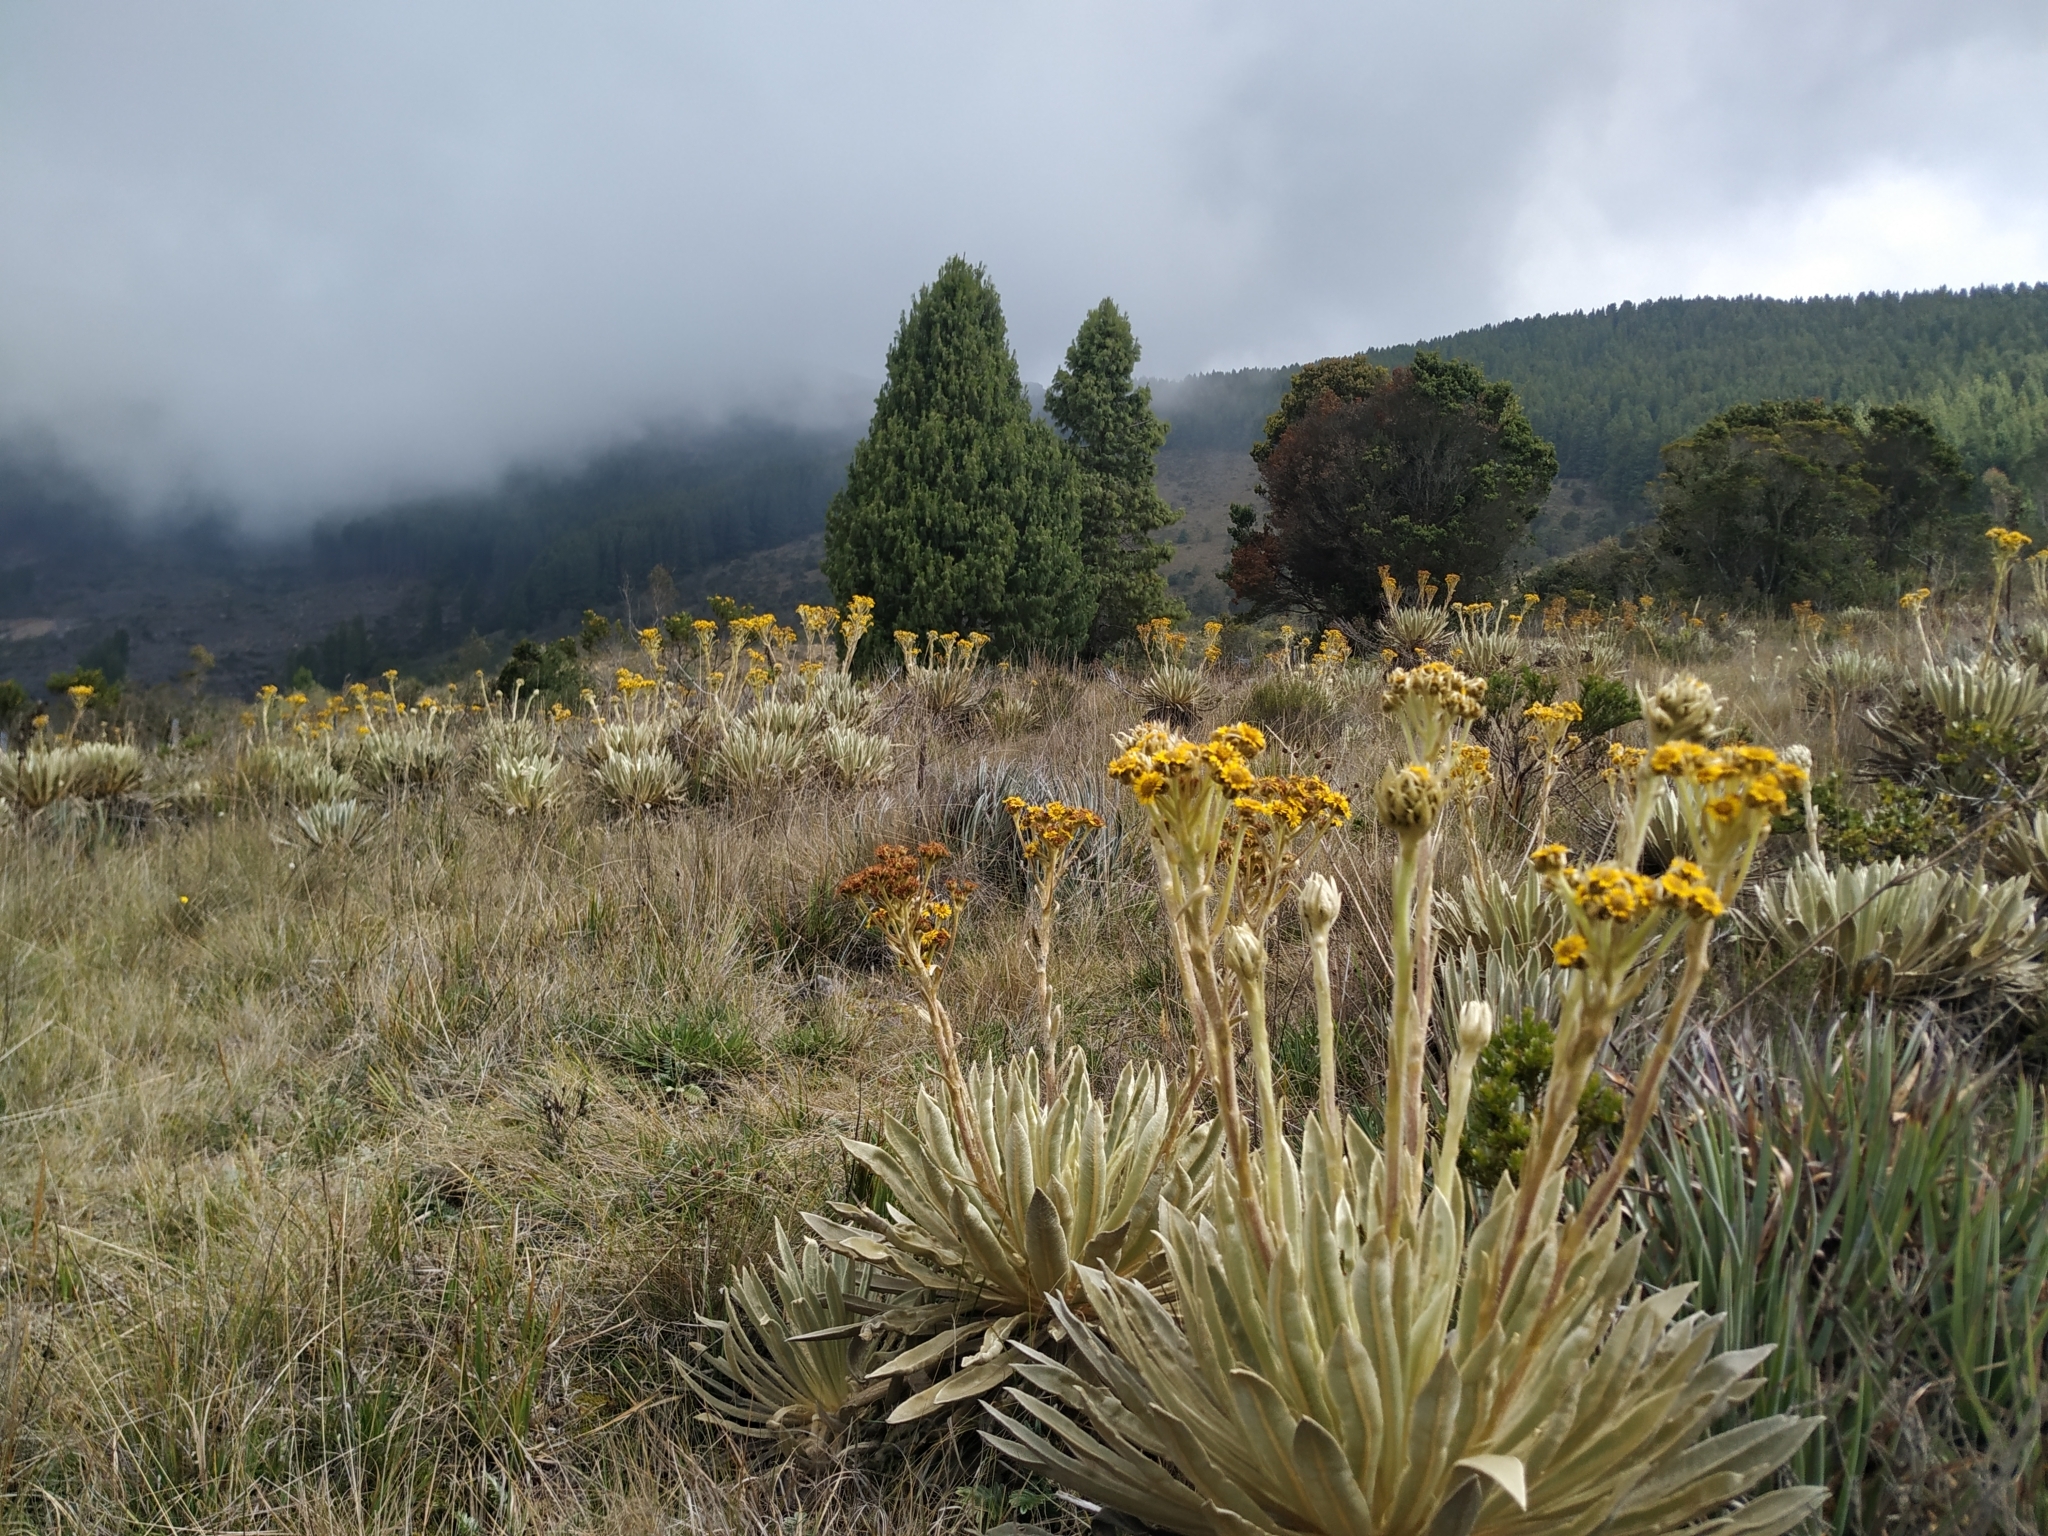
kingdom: Plantae
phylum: Tracheophyta
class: Magnoliopsida
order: Asterales
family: Asteraceae
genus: Espeletia
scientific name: Espeletia muiska
